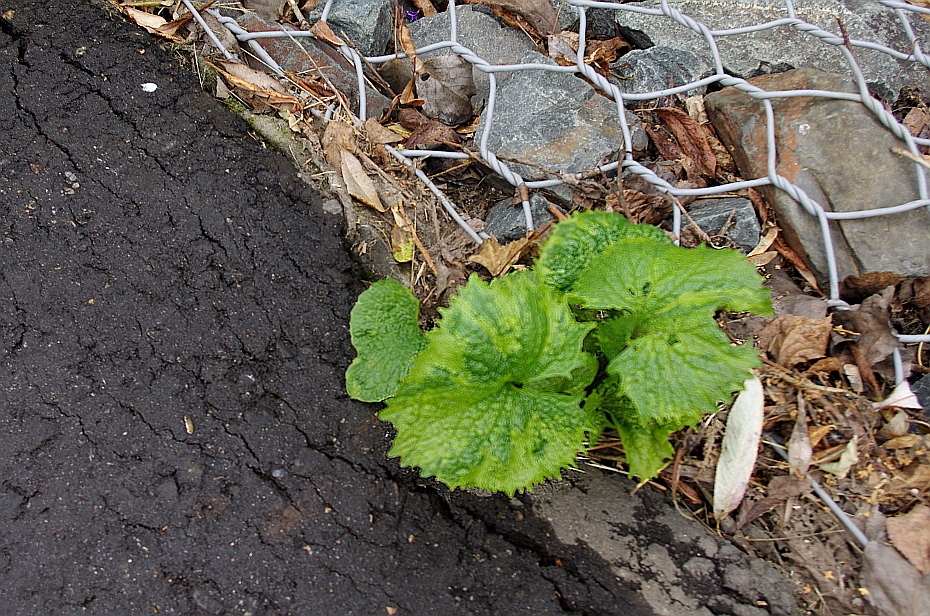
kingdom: Plantae
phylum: Tracheophyta
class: Magnoliopsida
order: Brassicales
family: Brassicaceae
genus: Alliaria
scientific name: Alliaria petiolata
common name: Garlic mustard
